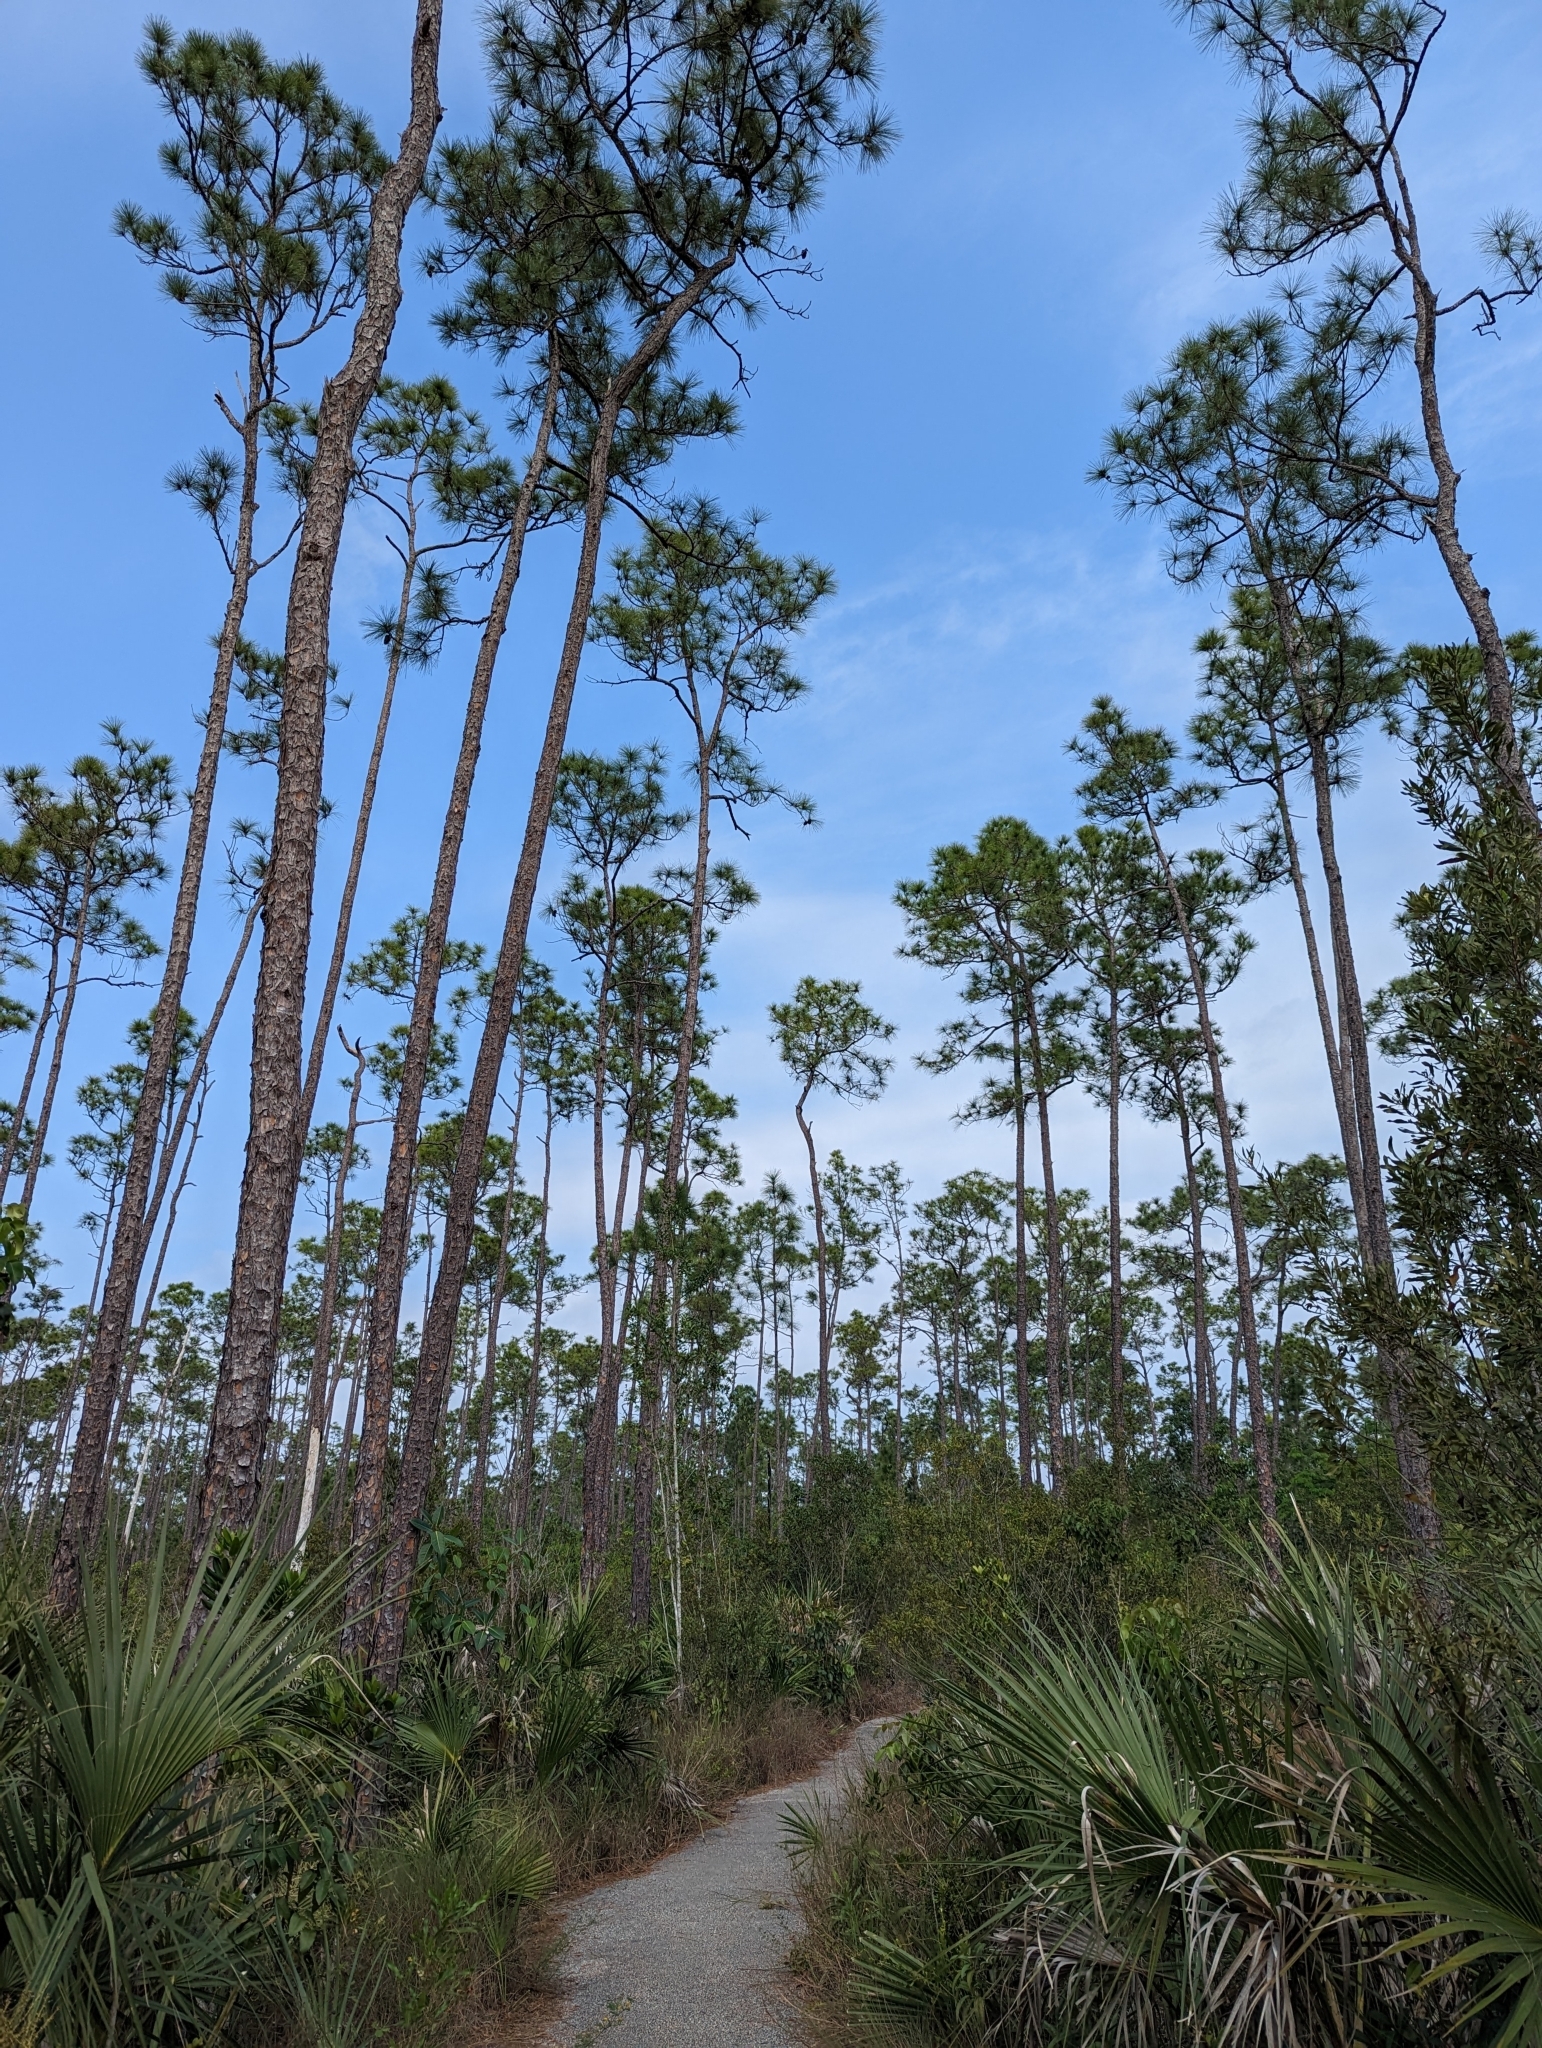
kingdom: Plantae
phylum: Tracheophyta
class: Pinopsida
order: Pinales
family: Pinaceae
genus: Pinus
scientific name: Pinus elliottii
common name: Slash pine
